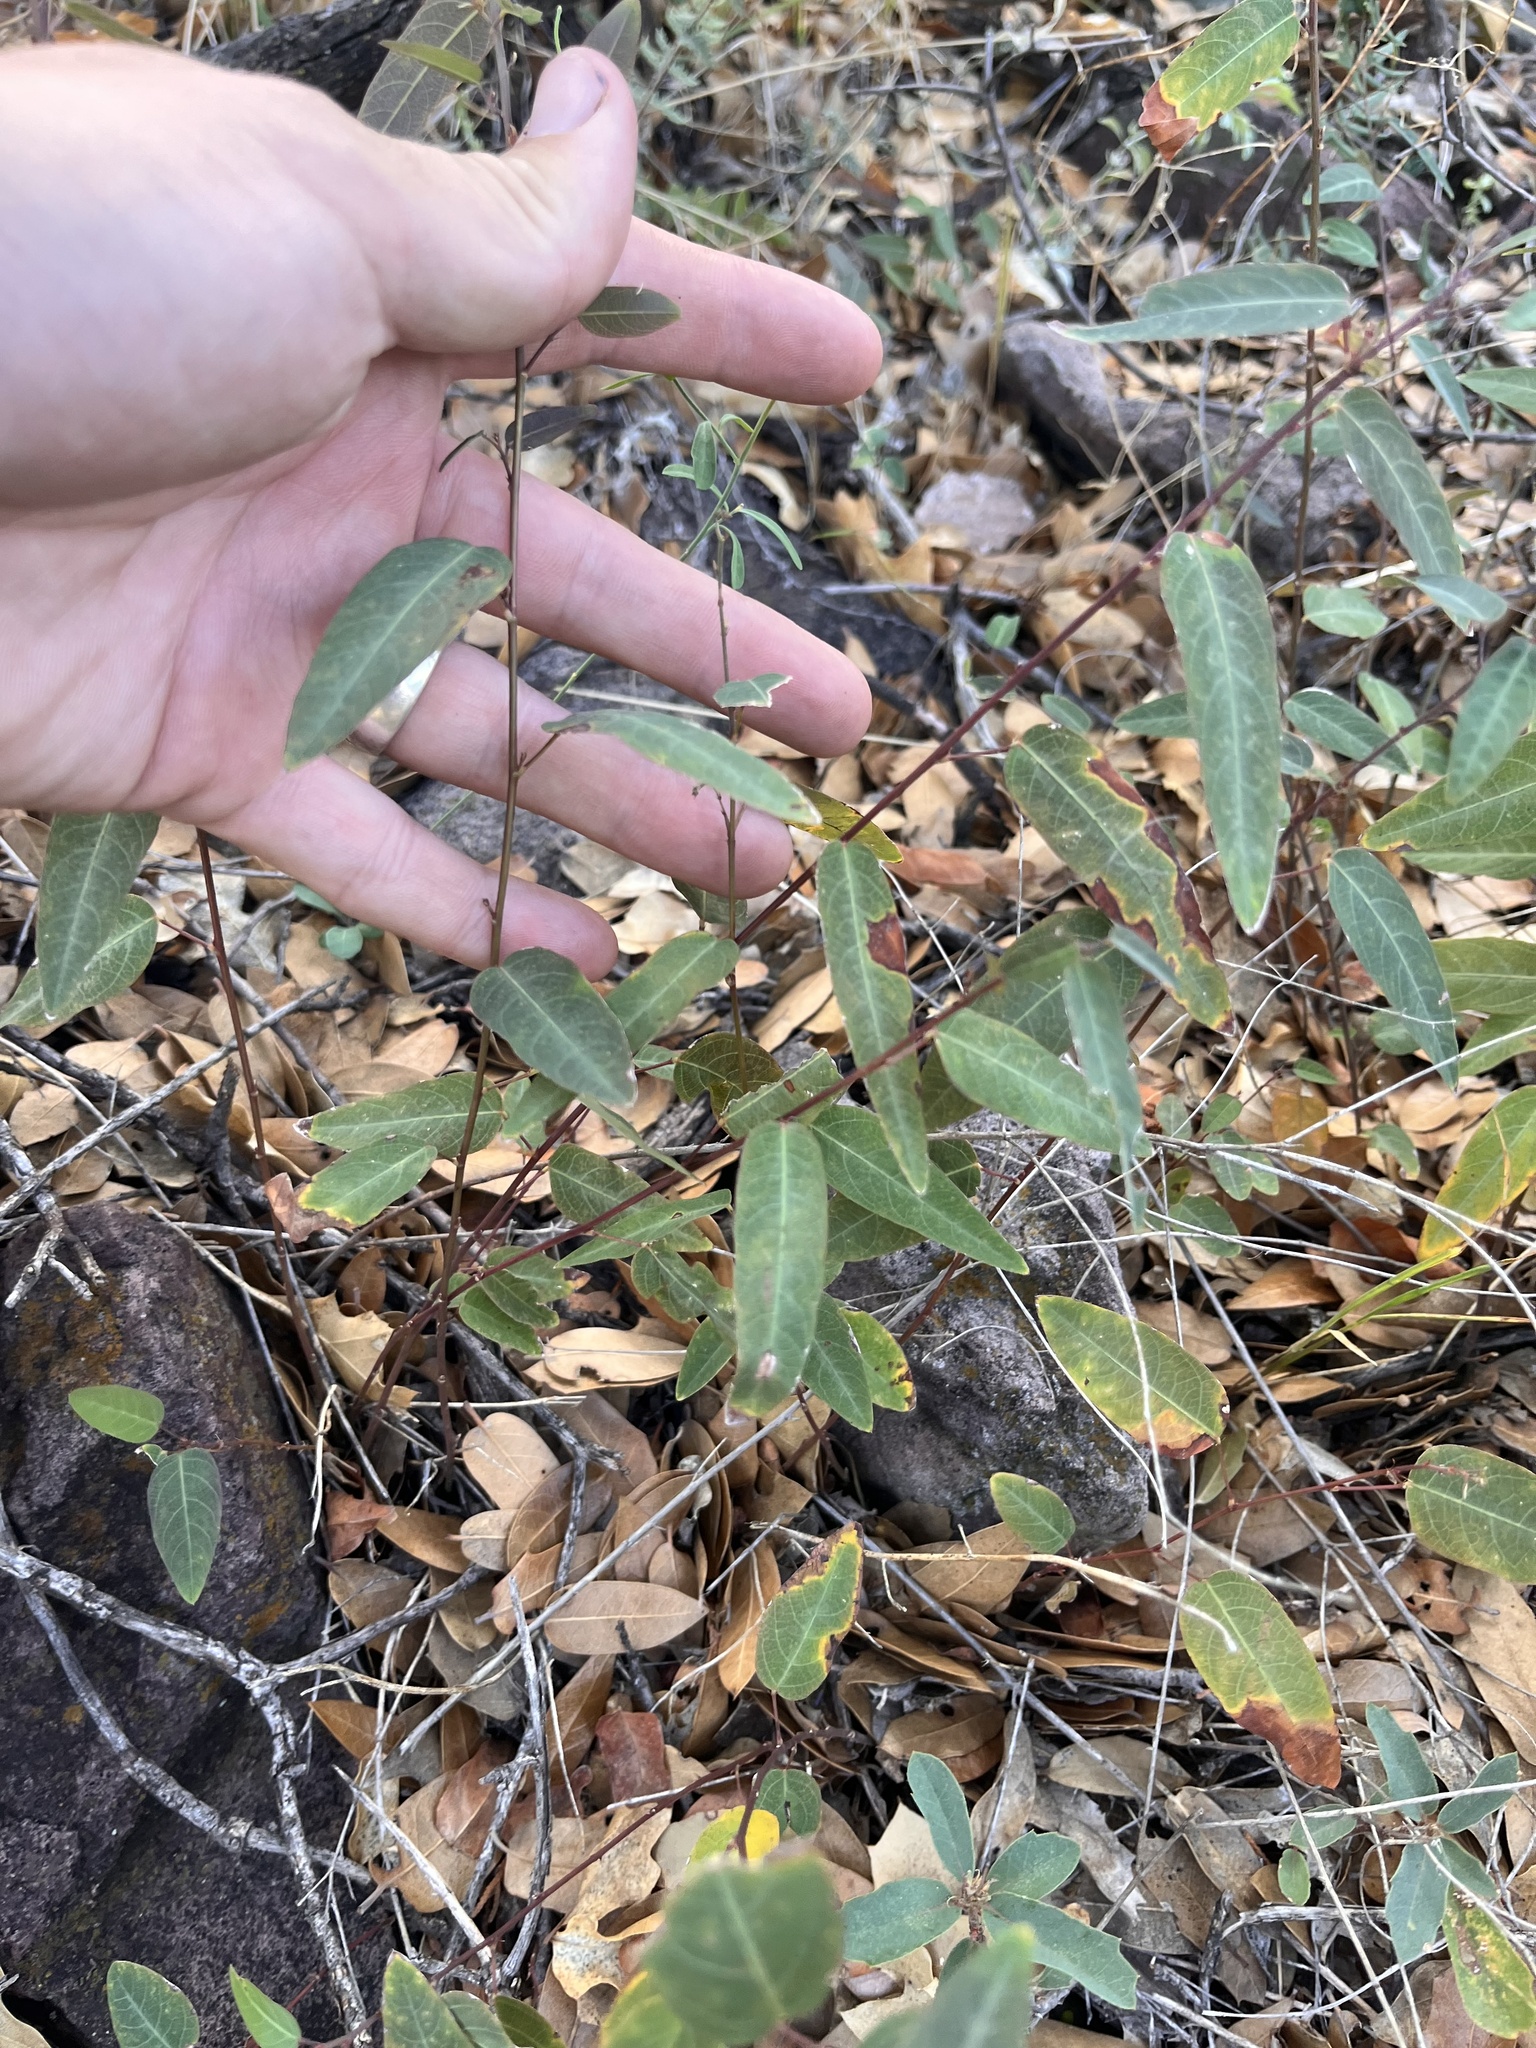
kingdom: Plantae
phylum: Tracheophyta
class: Magnoliopsida
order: Fabales
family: Fabaceae
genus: Desmodium
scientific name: Desmodium psilophyllum
